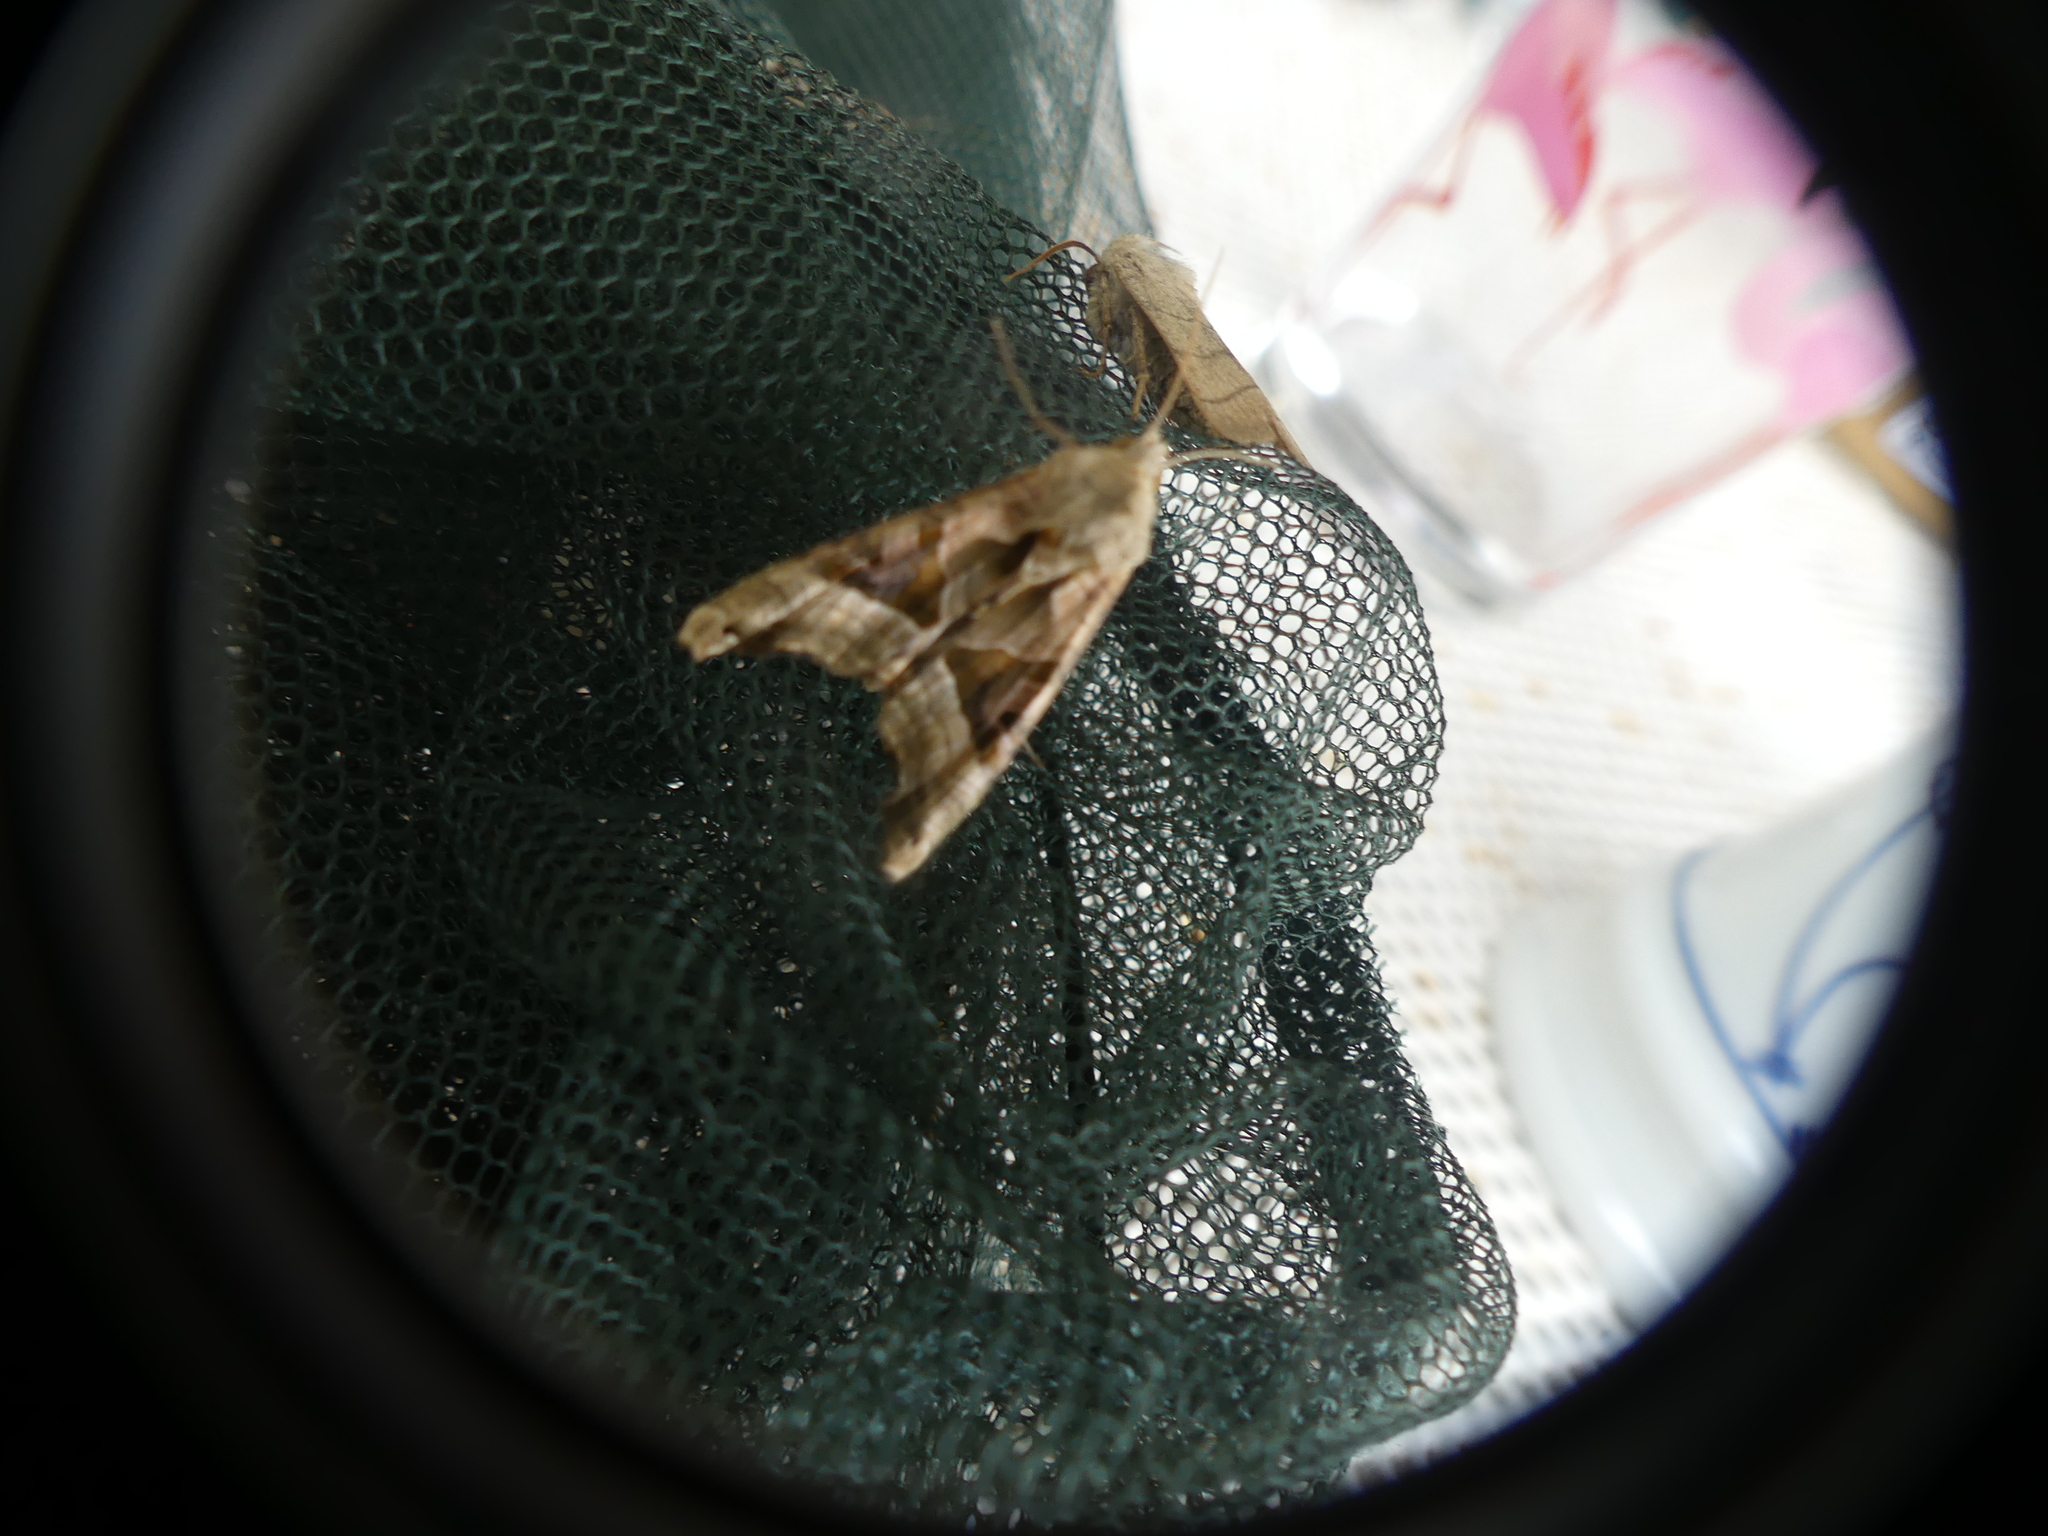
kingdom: Animalia
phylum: Arthropoda
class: Insecta
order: Lepidoptera
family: Noctuidae
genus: Phlogophora
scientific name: Phlogophora meticulosa
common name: Angle shades
